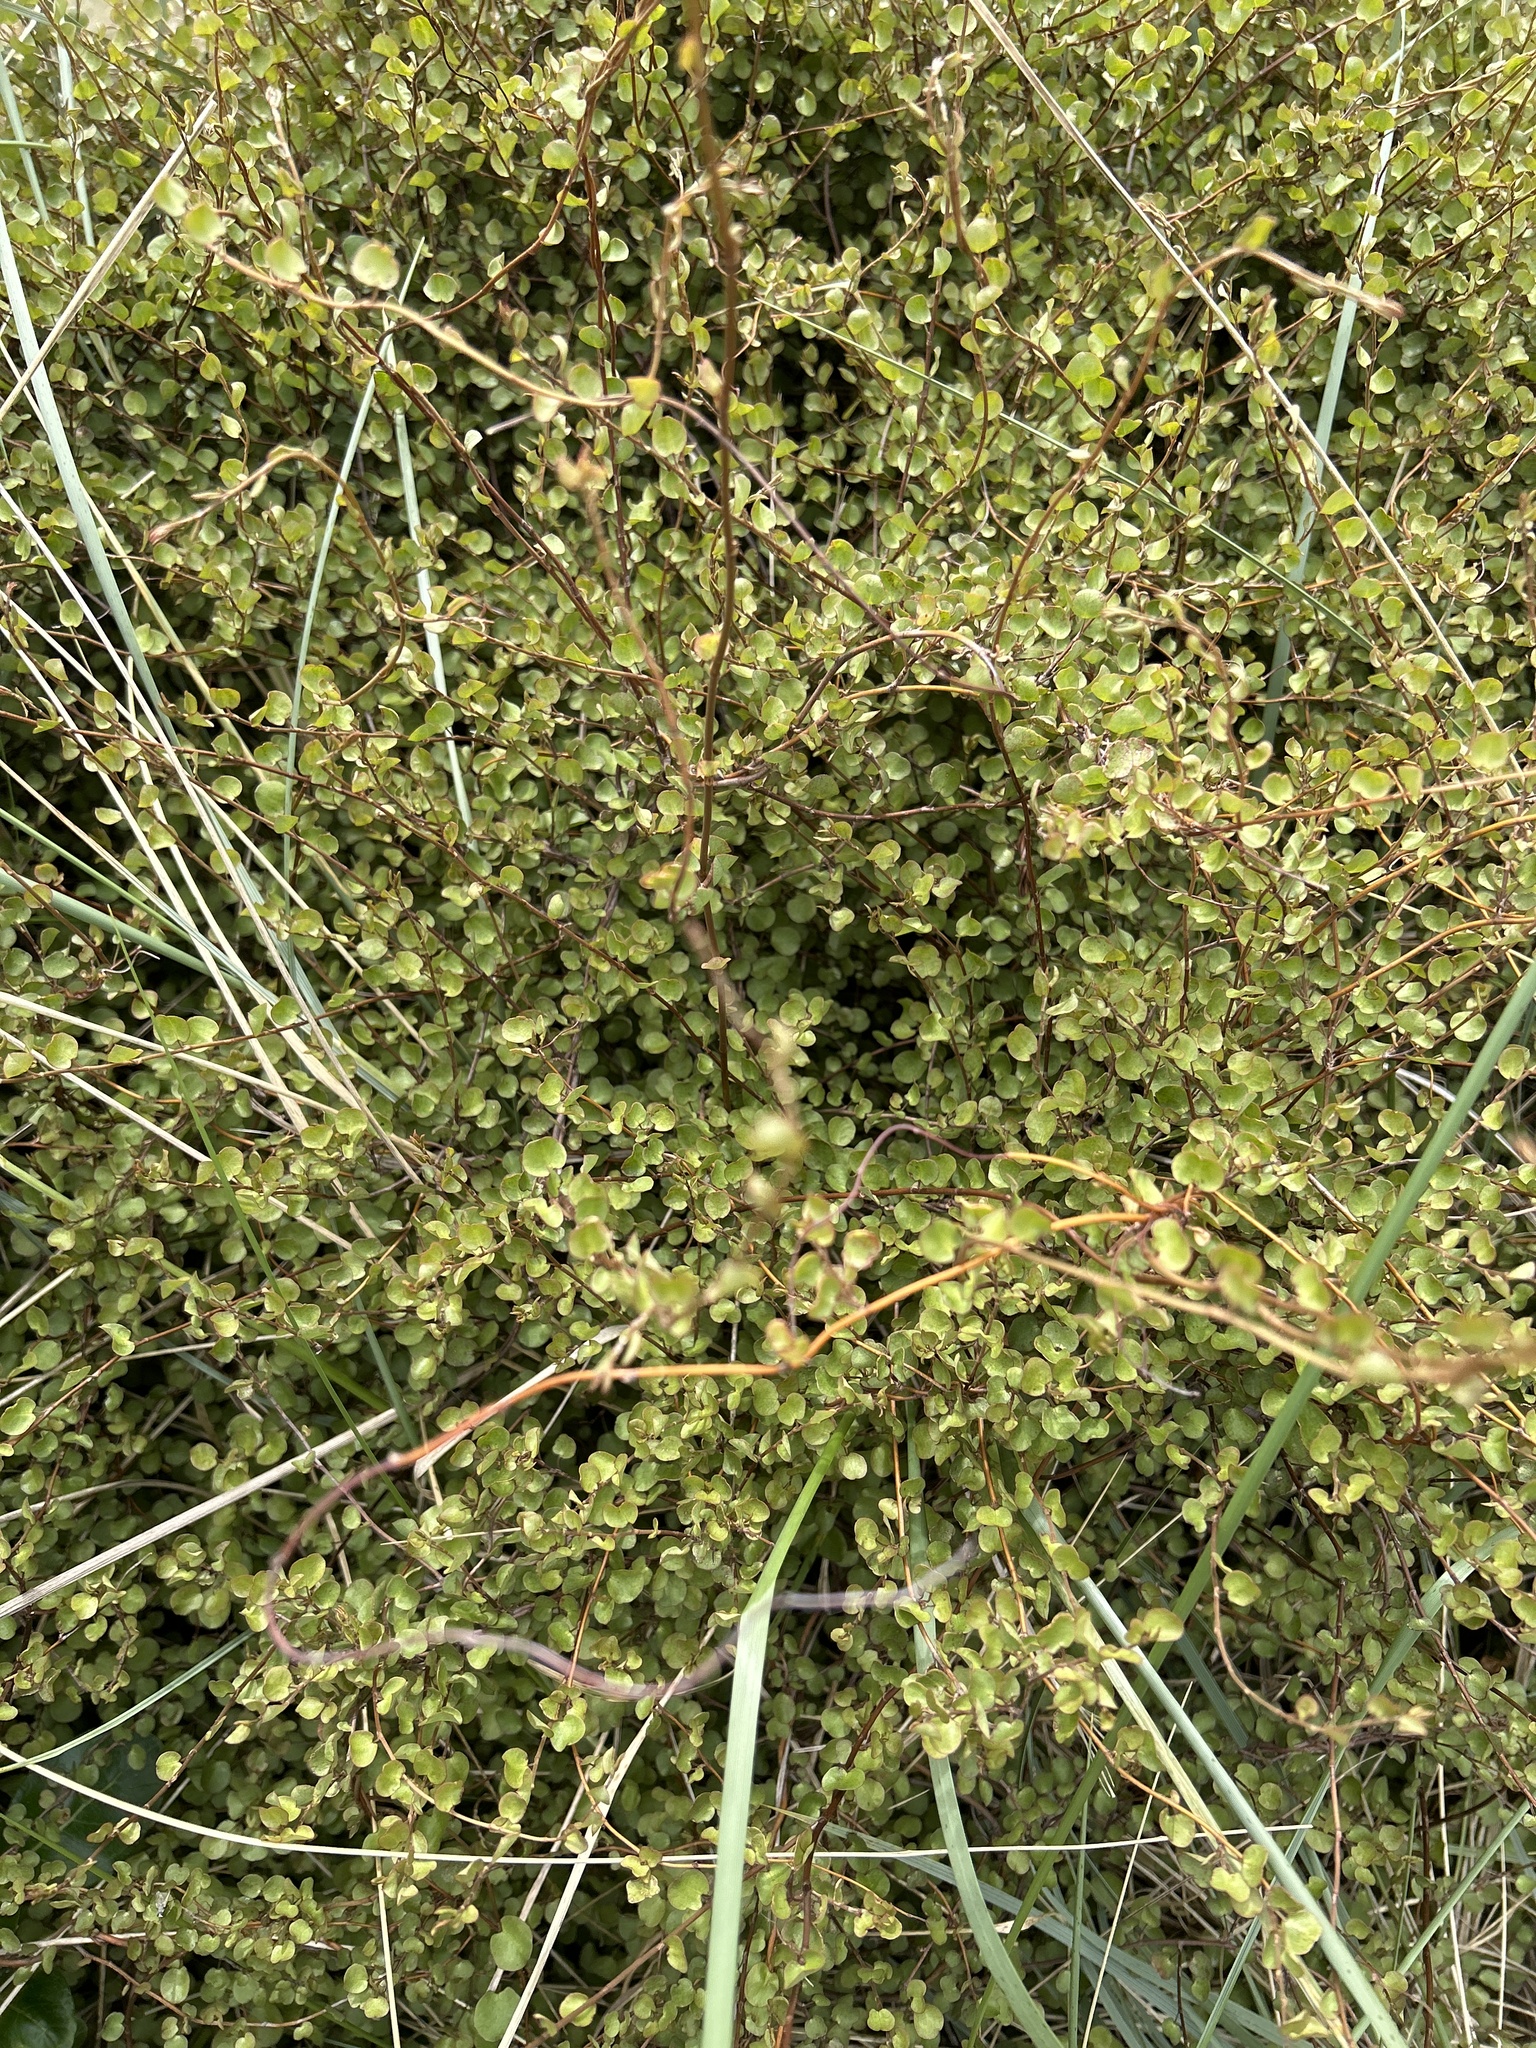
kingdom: Plantae
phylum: Tracheophyta
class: Magnoliopsida
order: Caryophyllales
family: Polygonaceae
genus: Muehlenbeckia
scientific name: Muehlenbeckia complexa
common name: Wireplant
